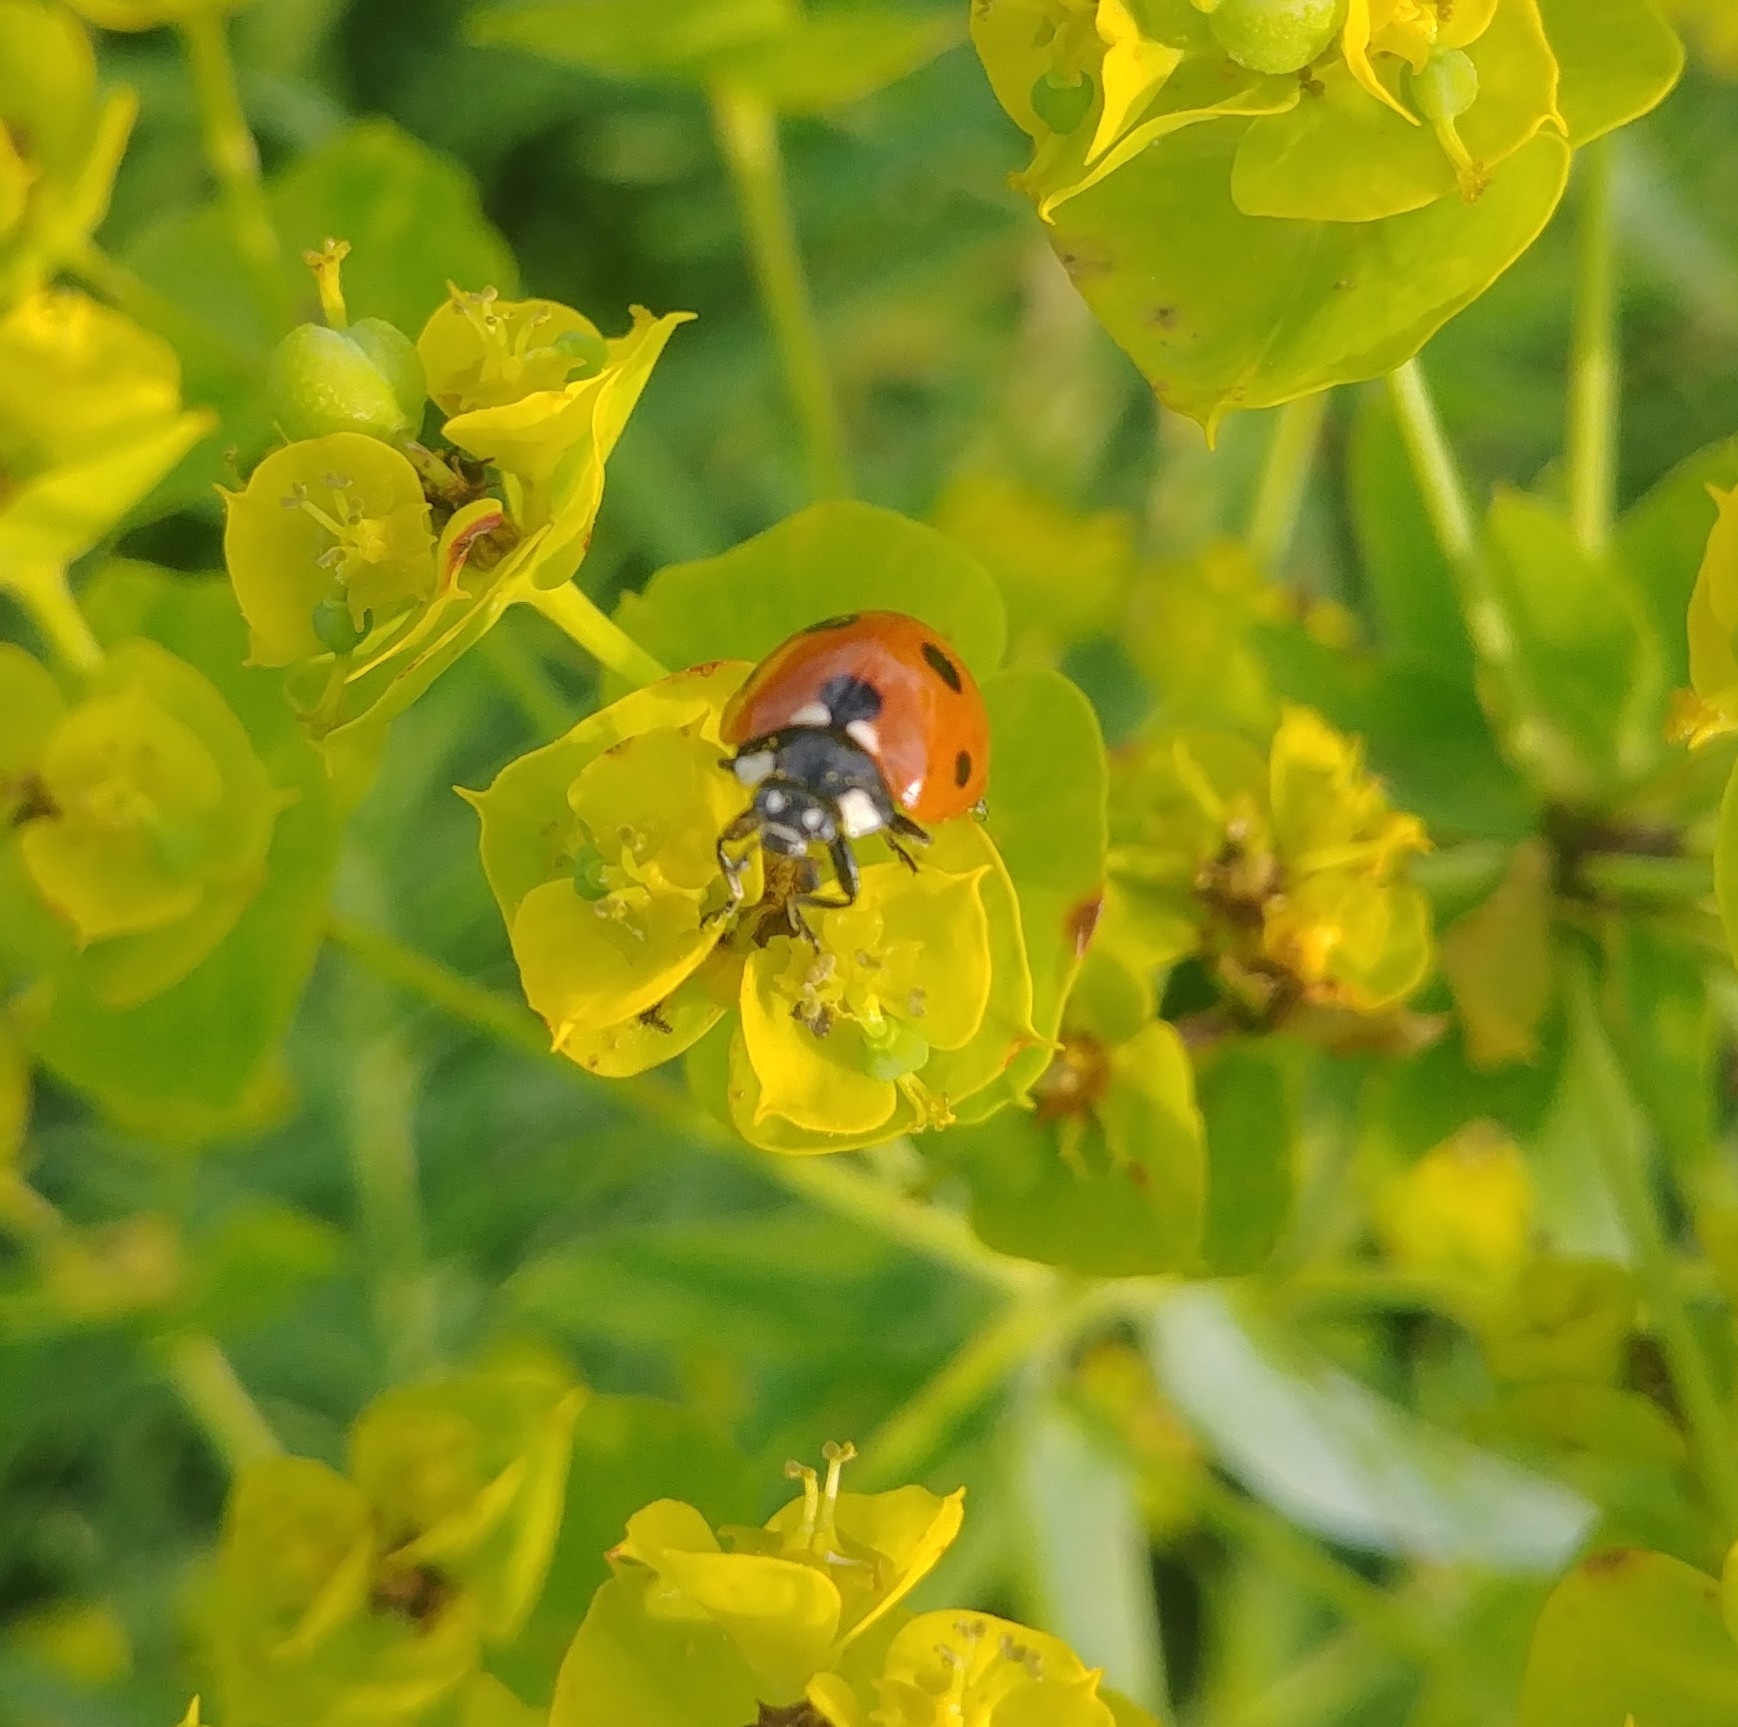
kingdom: Animalia
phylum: Arthropoda
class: Insecta
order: Coleoptera
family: Coccinellidae
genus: Coccinella
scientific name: Coccinella septempunctata
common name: Sevenspotted lady beetle
